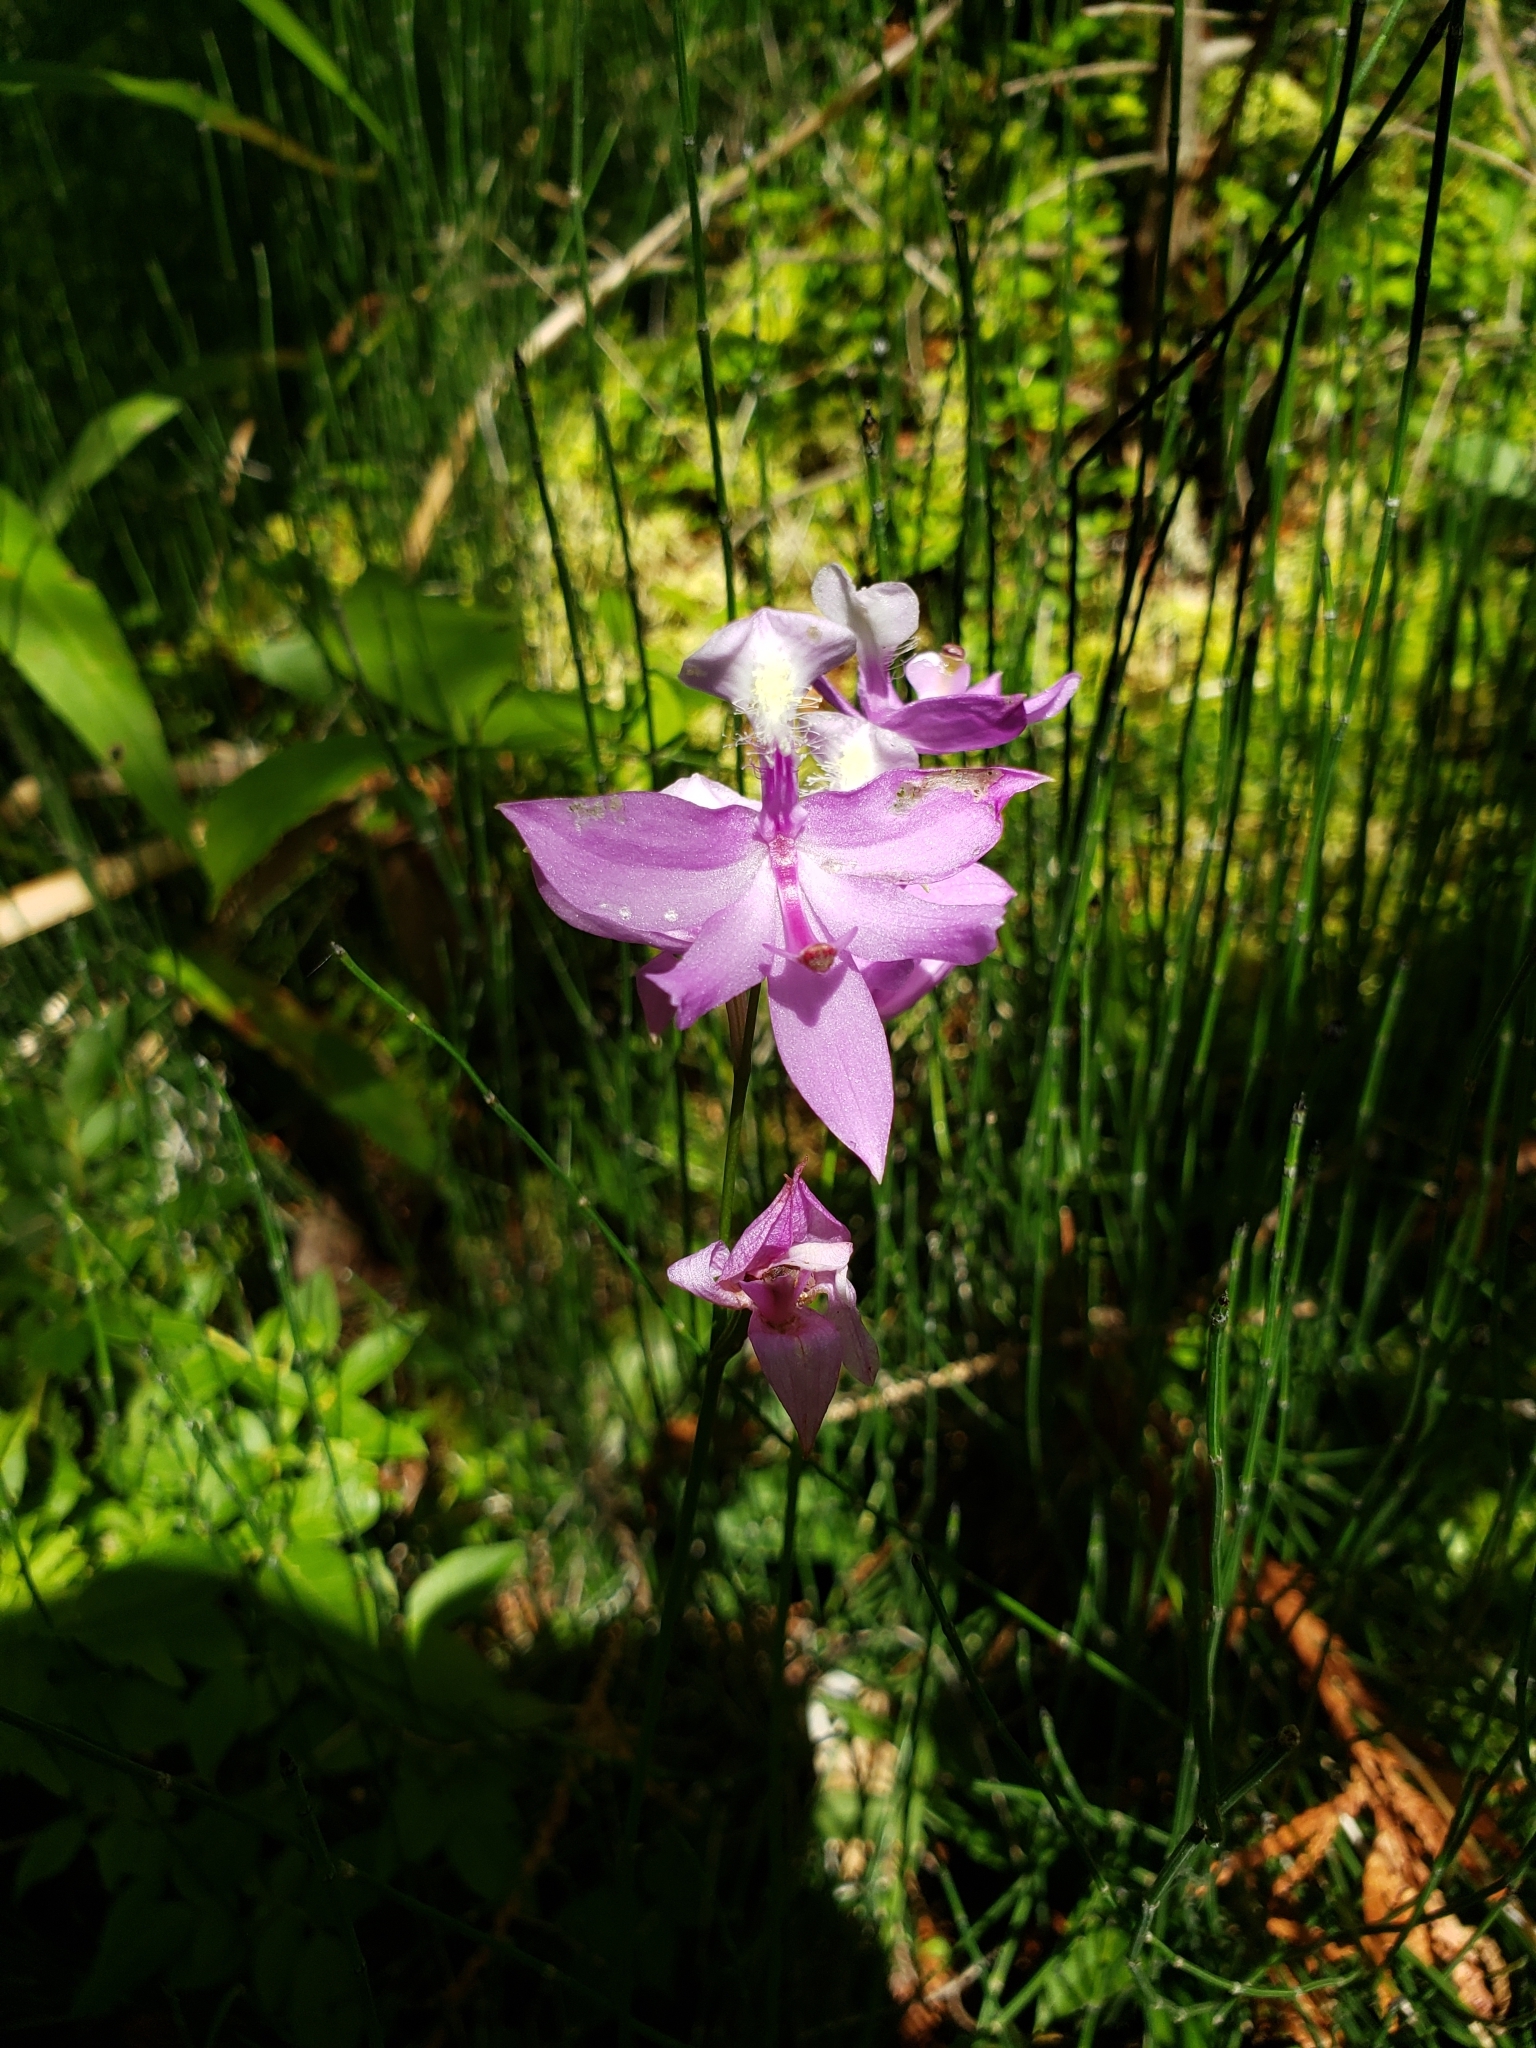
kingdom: Plantae
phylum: Tracheophyta
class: Liliopsida
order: Asparagales
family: Orchidaceae
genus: Calopogon
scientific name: Calopogon tuberosus
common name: Grass-pink
